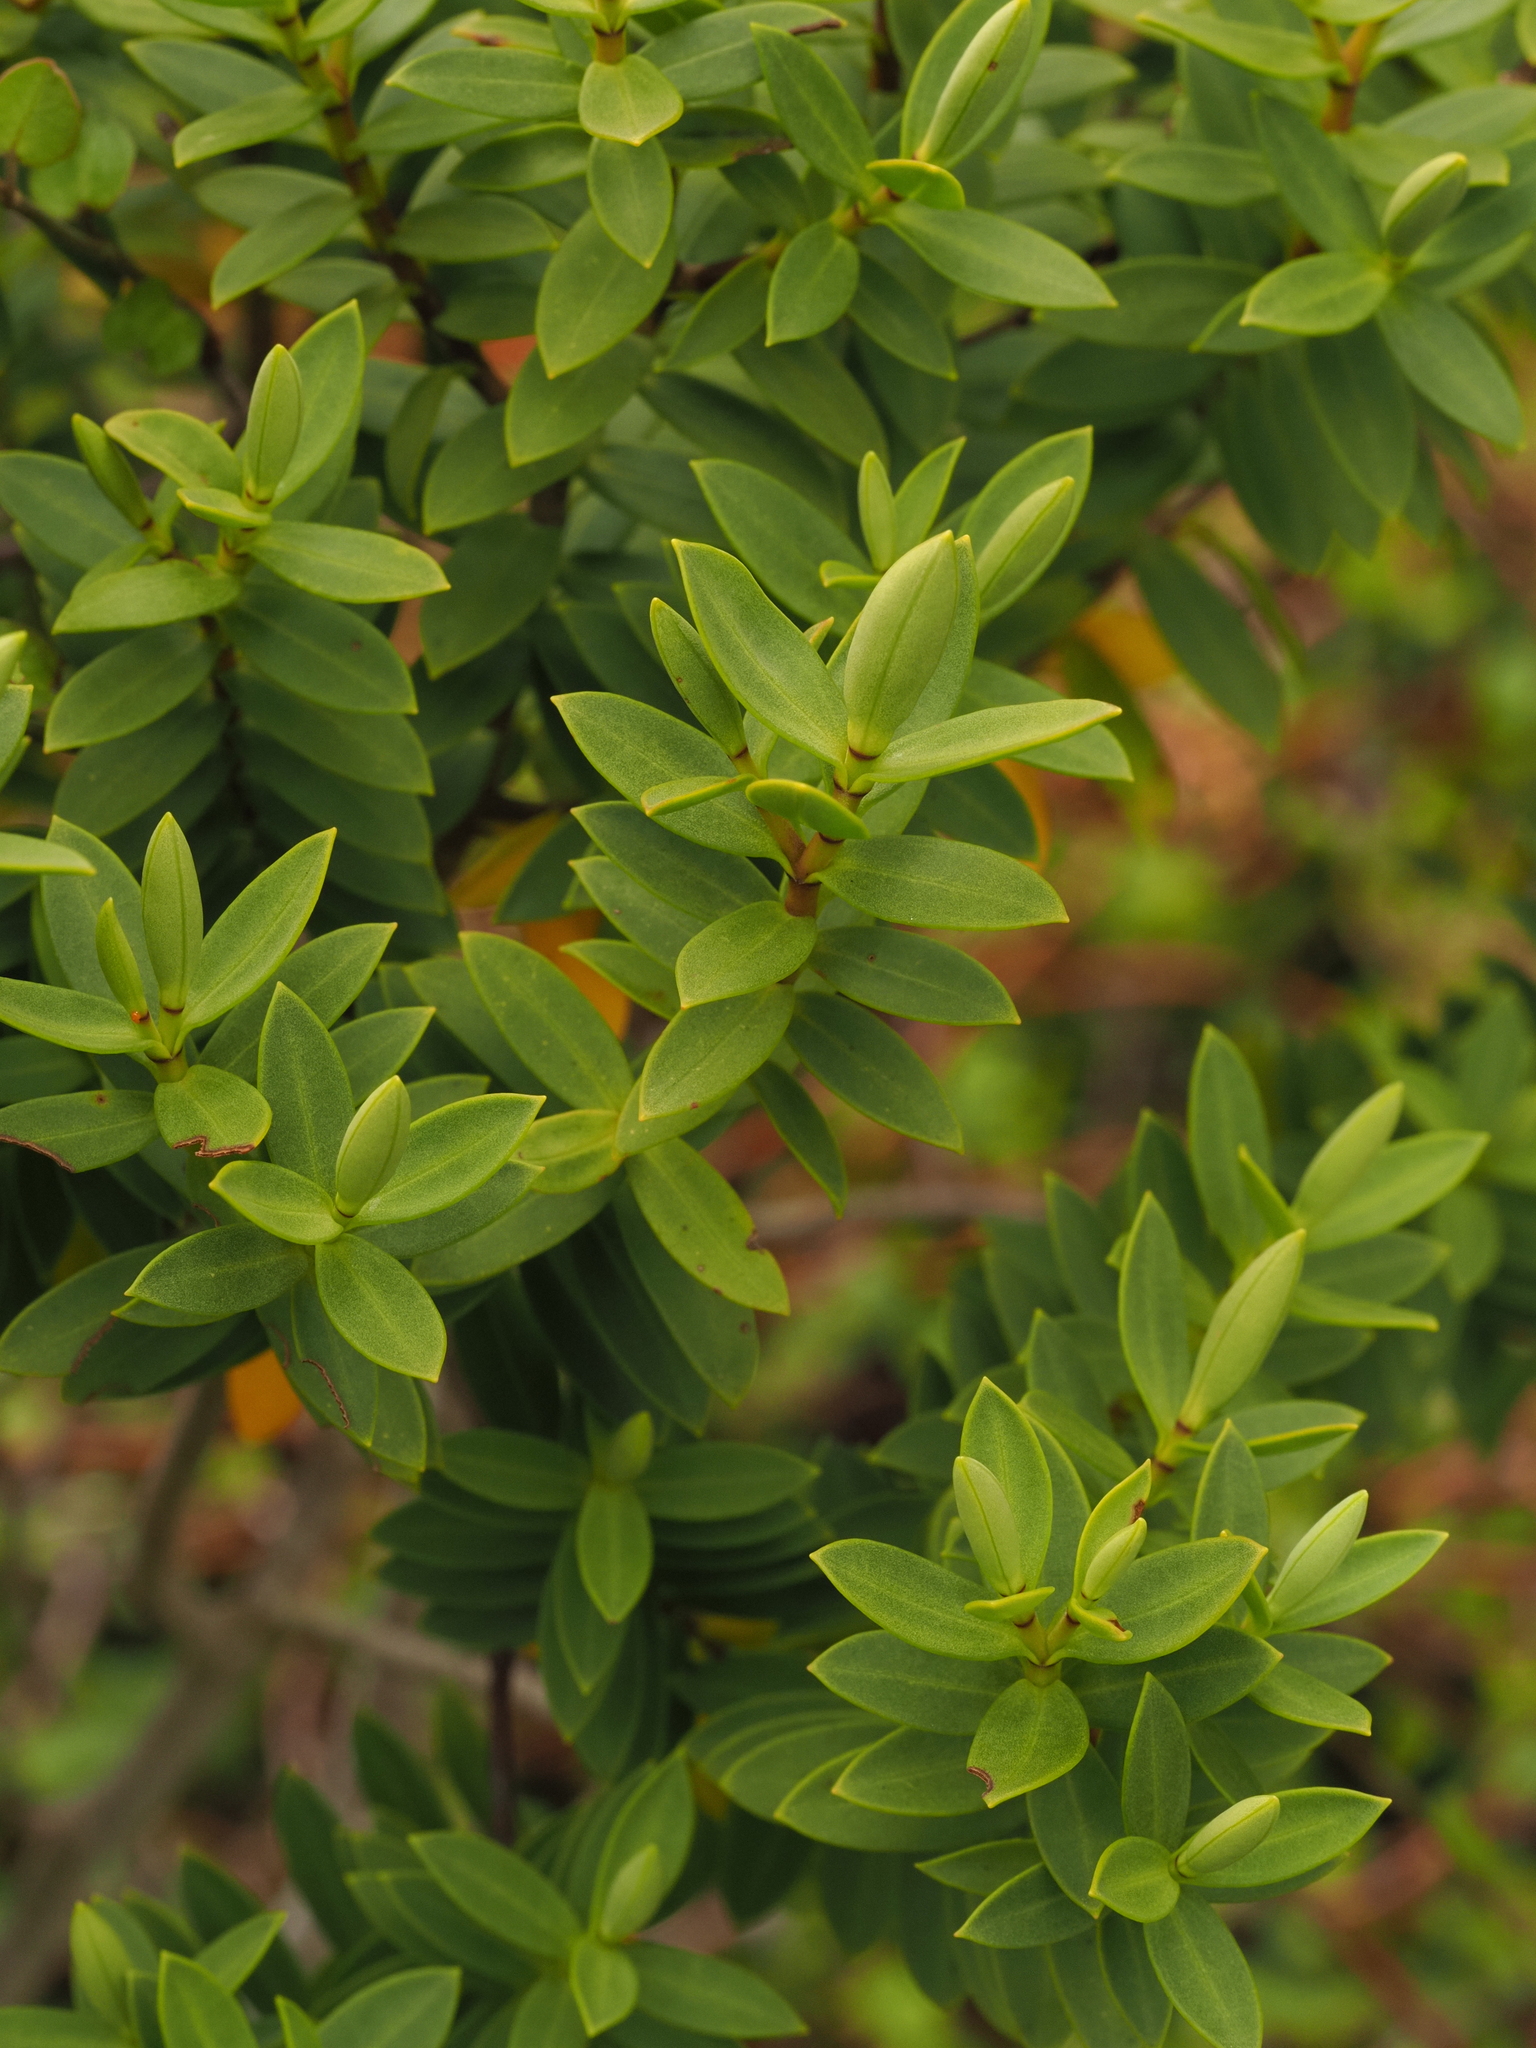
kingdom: Plantae
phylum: Tracheophyta
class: Magnoliopsida
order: Lamiales
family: Plantaginaceae
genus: Veronica
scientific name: Veronica glaucophylla
